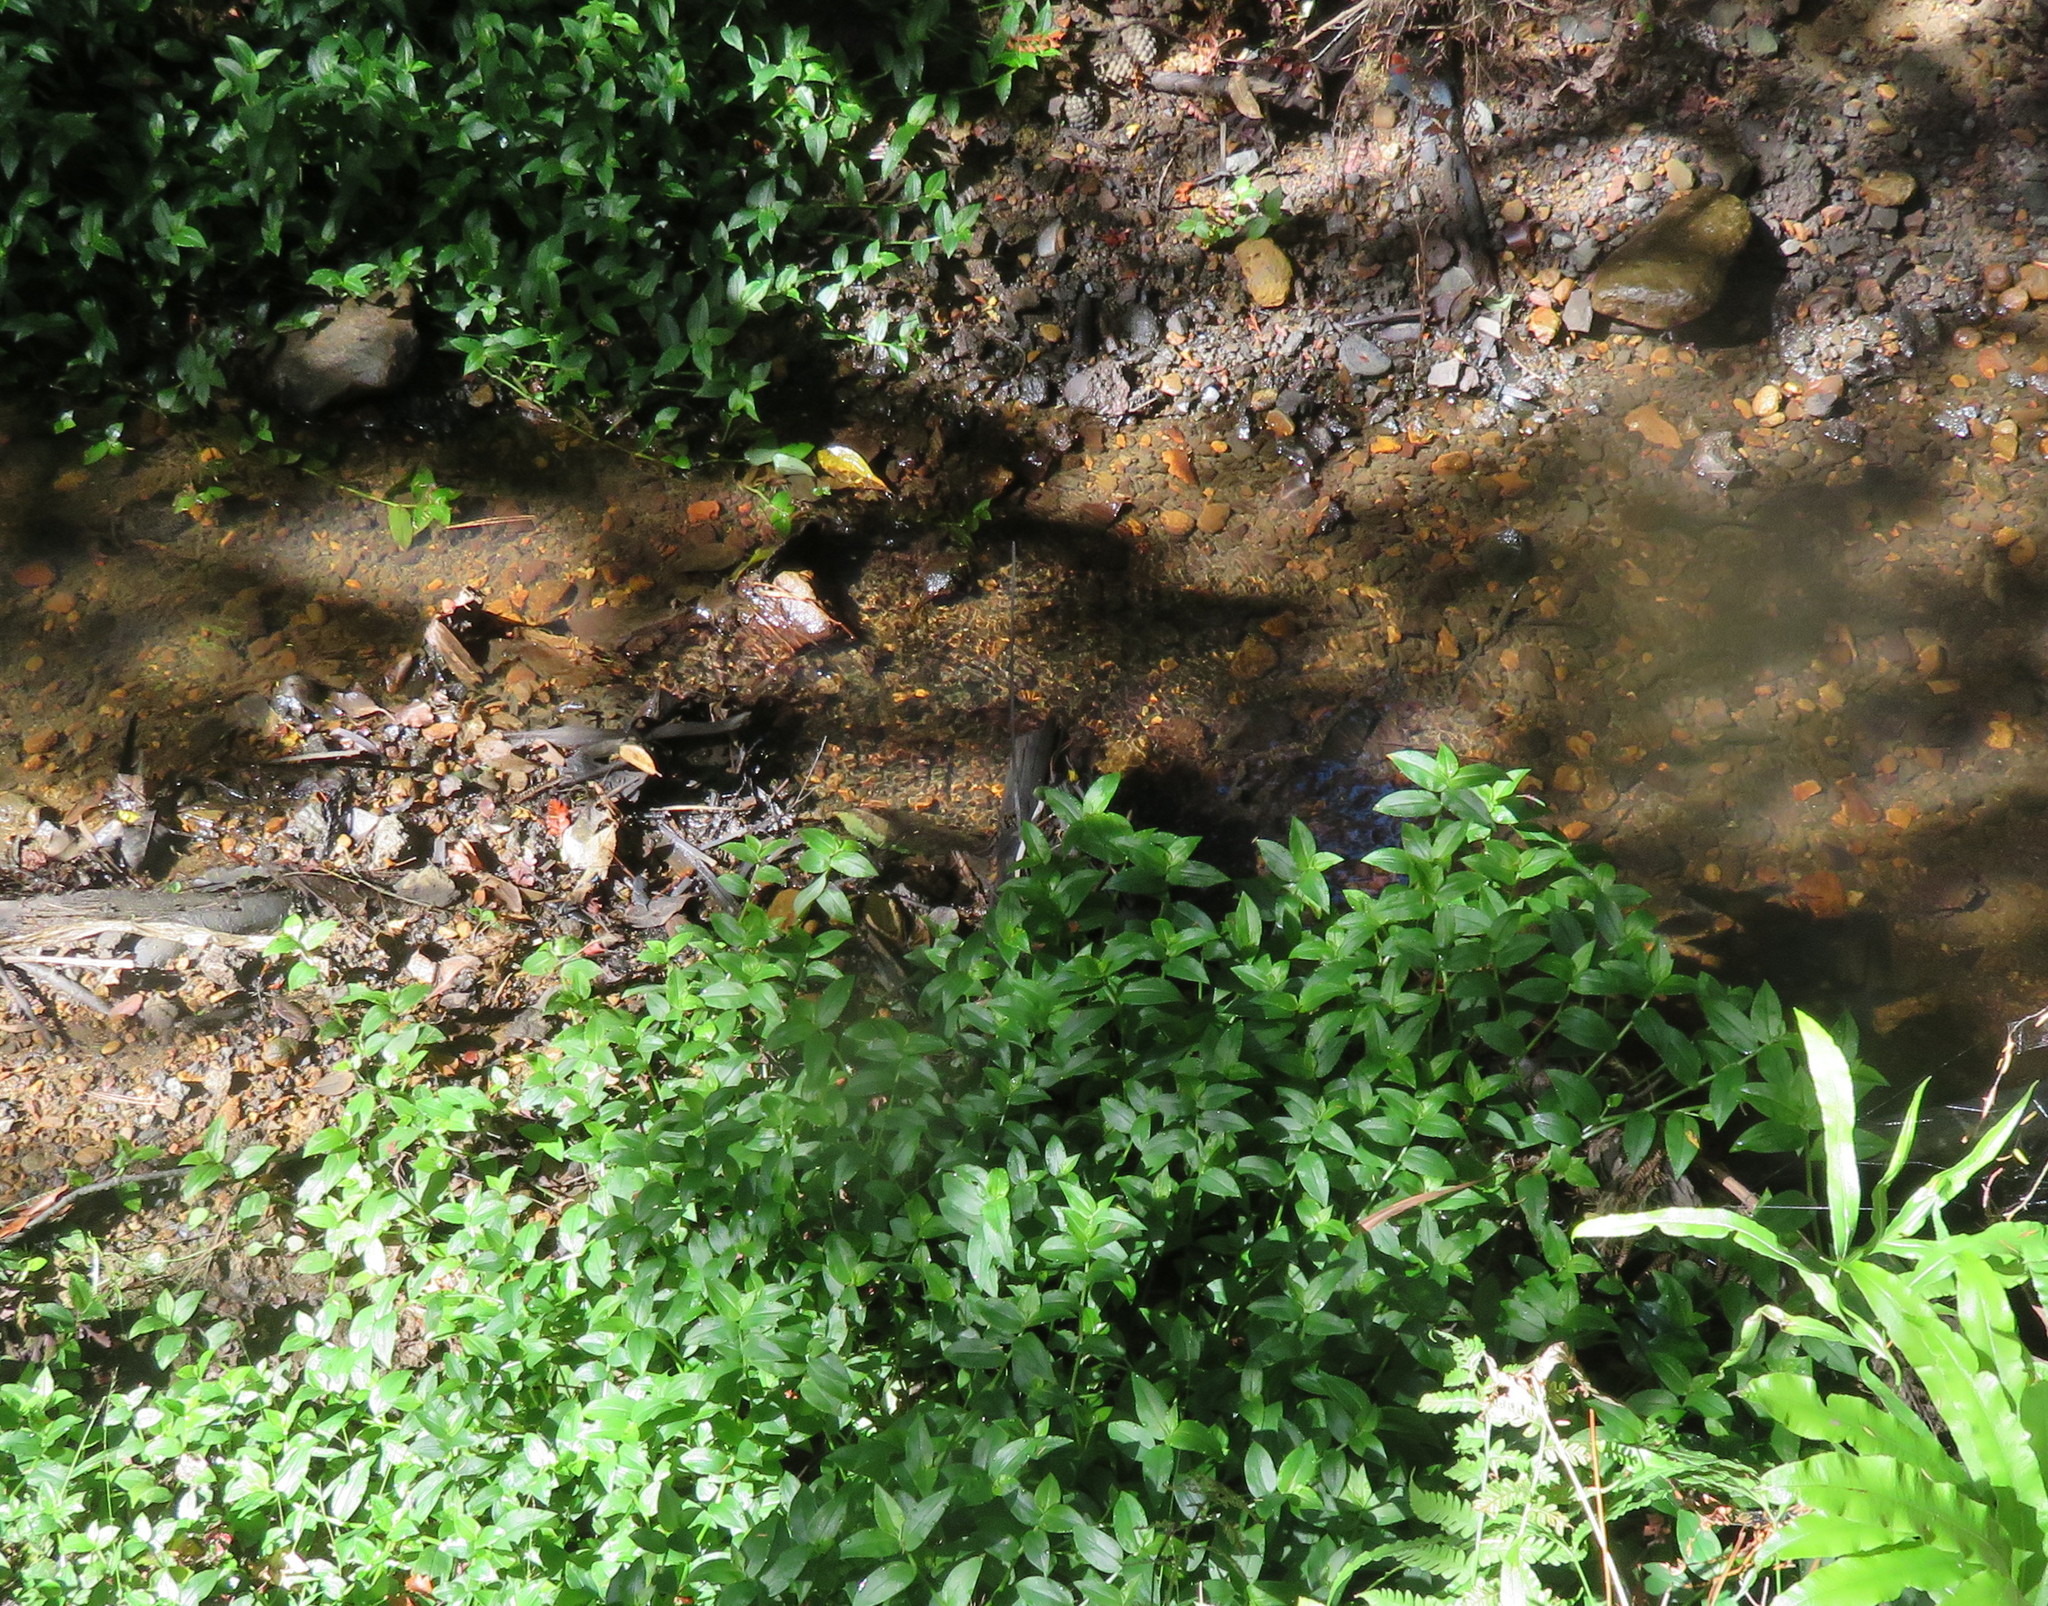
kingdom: Plantae
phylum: Tracheophyta
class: Liliopsida
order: Commelinales
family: Commelinaceae
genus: Tradescantia
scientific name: Tradescantia fluminensis
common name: Wandering-jew
